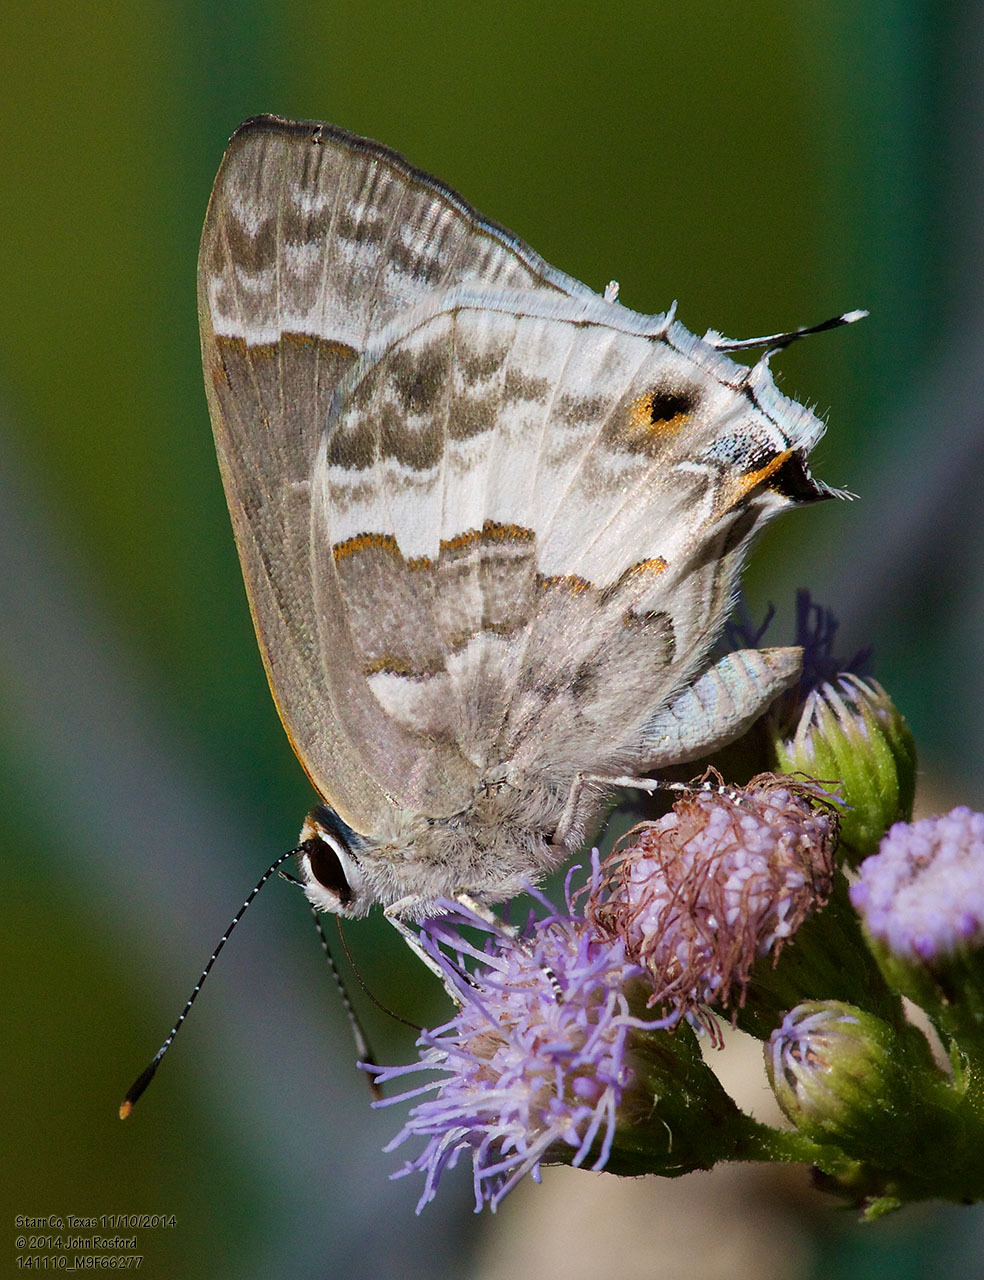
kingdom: Animalia
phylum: Arthropoda
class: Insecta
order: Lepidoptera
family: Lycaenidae
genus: Strymon
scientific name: Strymon albata
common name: White scrub-hairstreak
